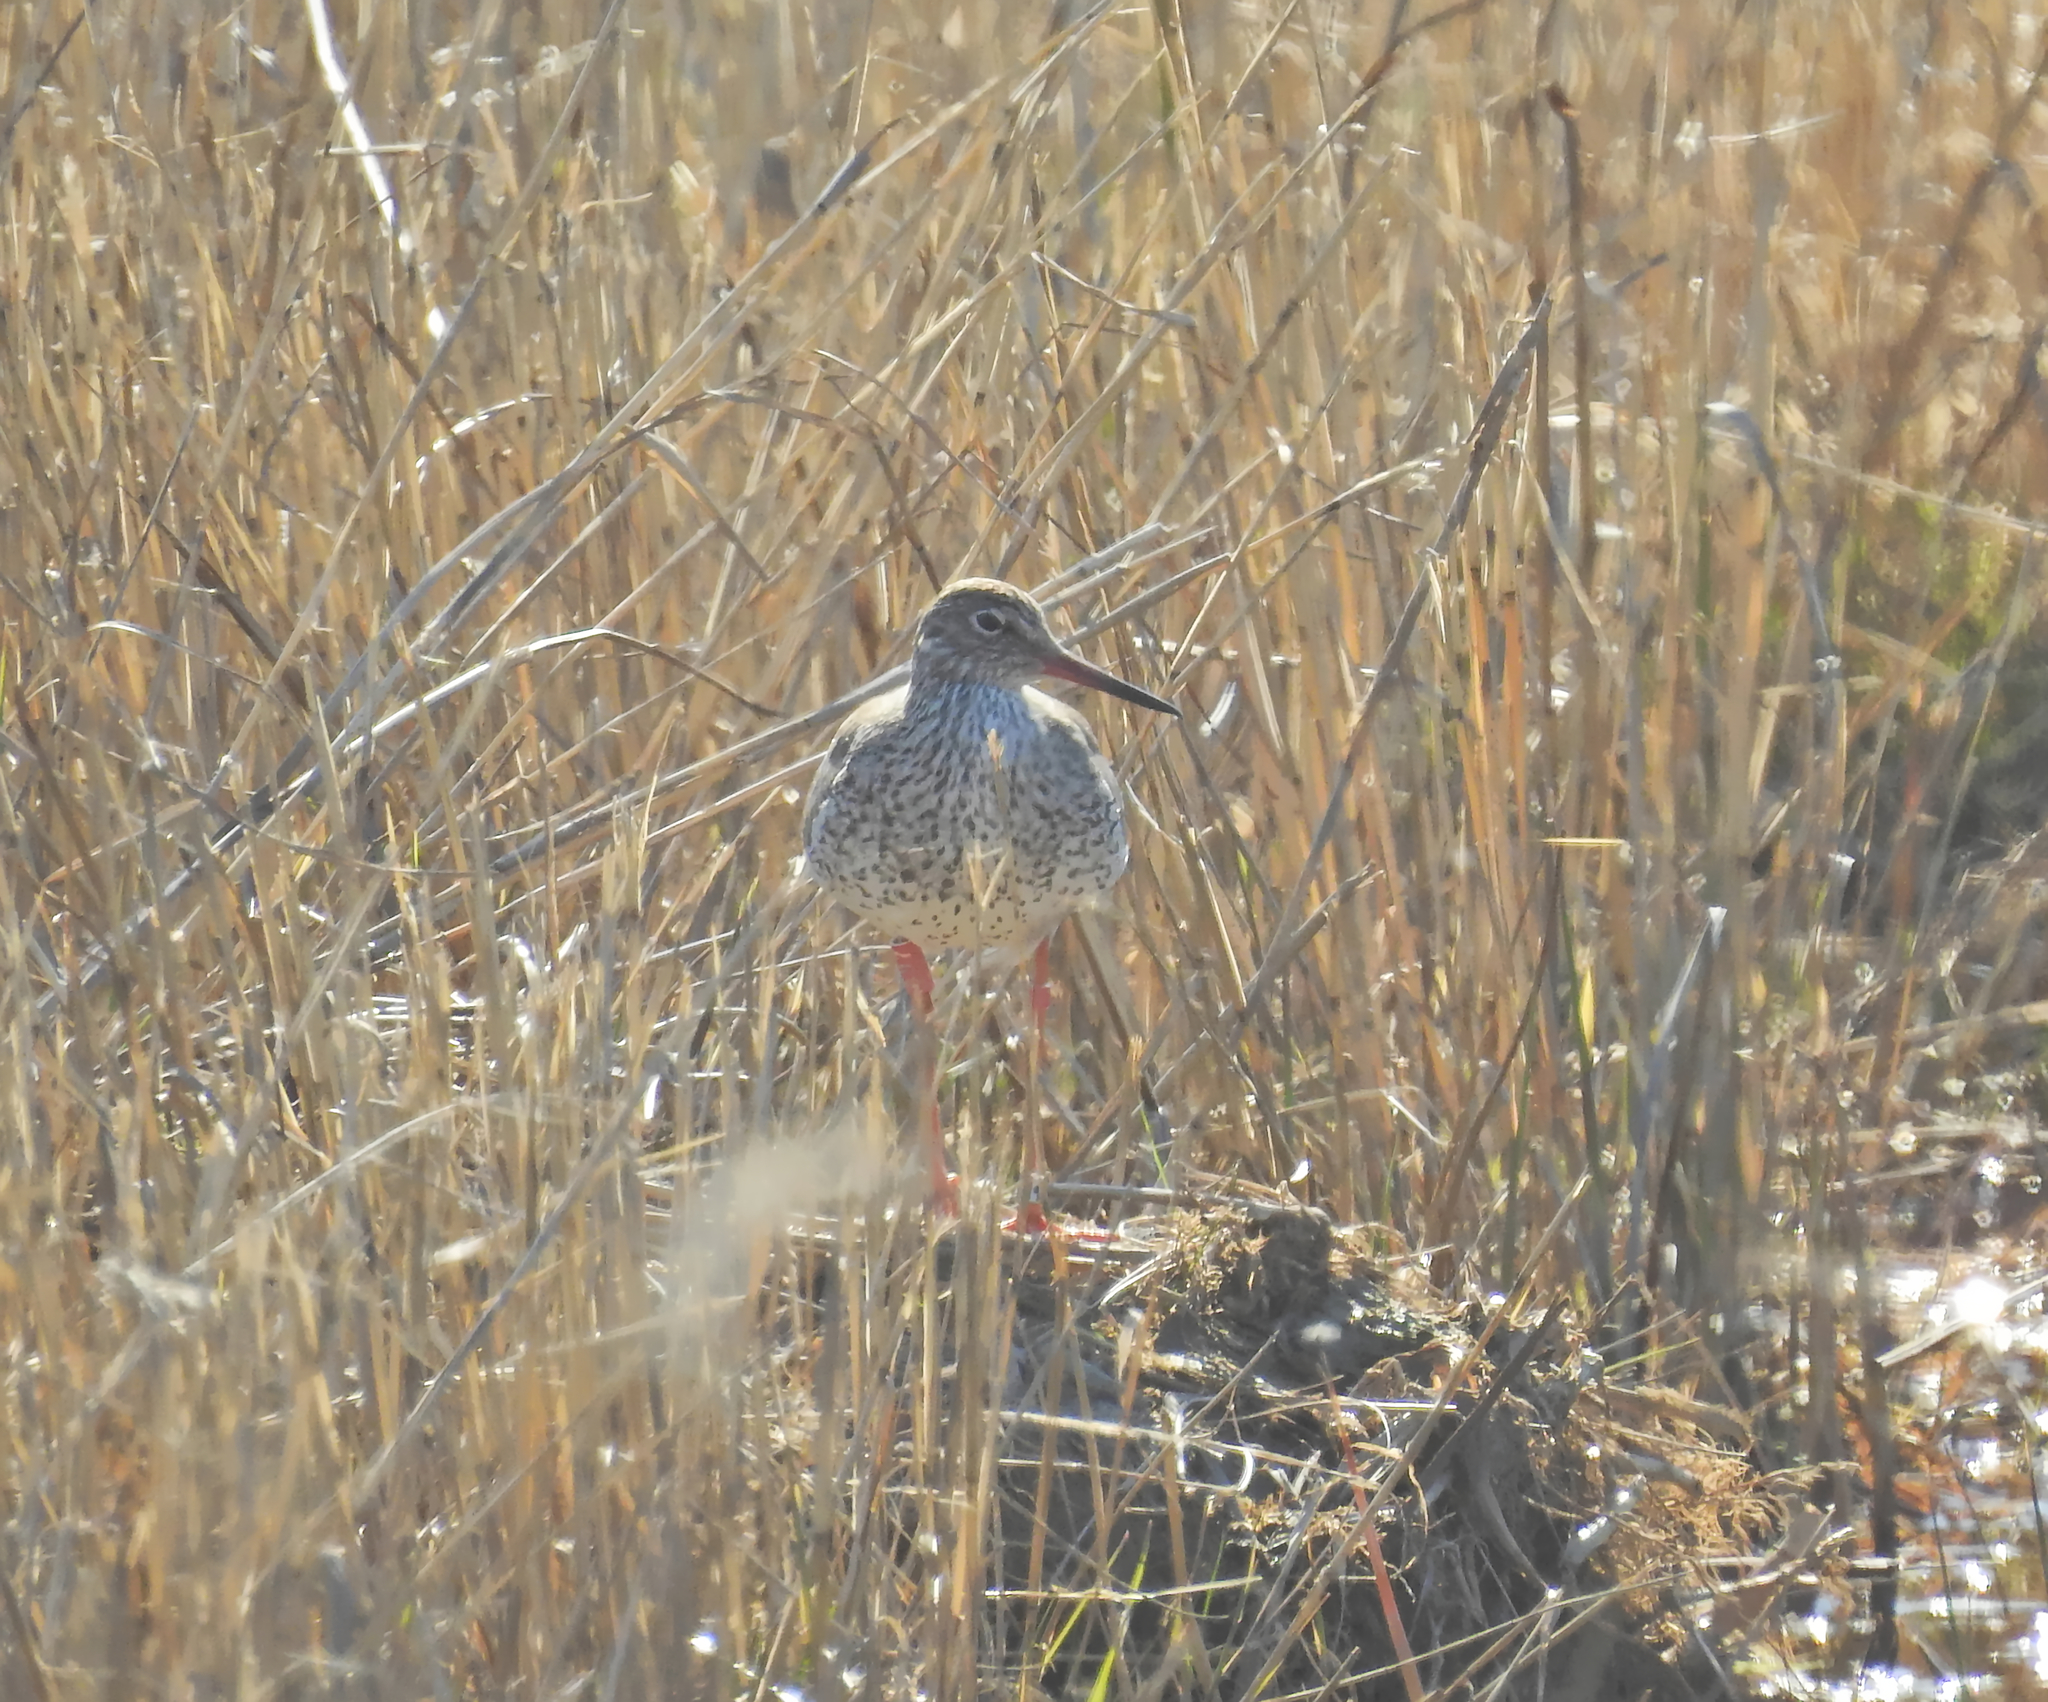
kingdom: Animalia
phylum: Chordata
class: Aves
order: Charadriiformes
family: Scolopacidae
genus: Tringa
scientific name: Tringa totanus
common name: Common redshank
